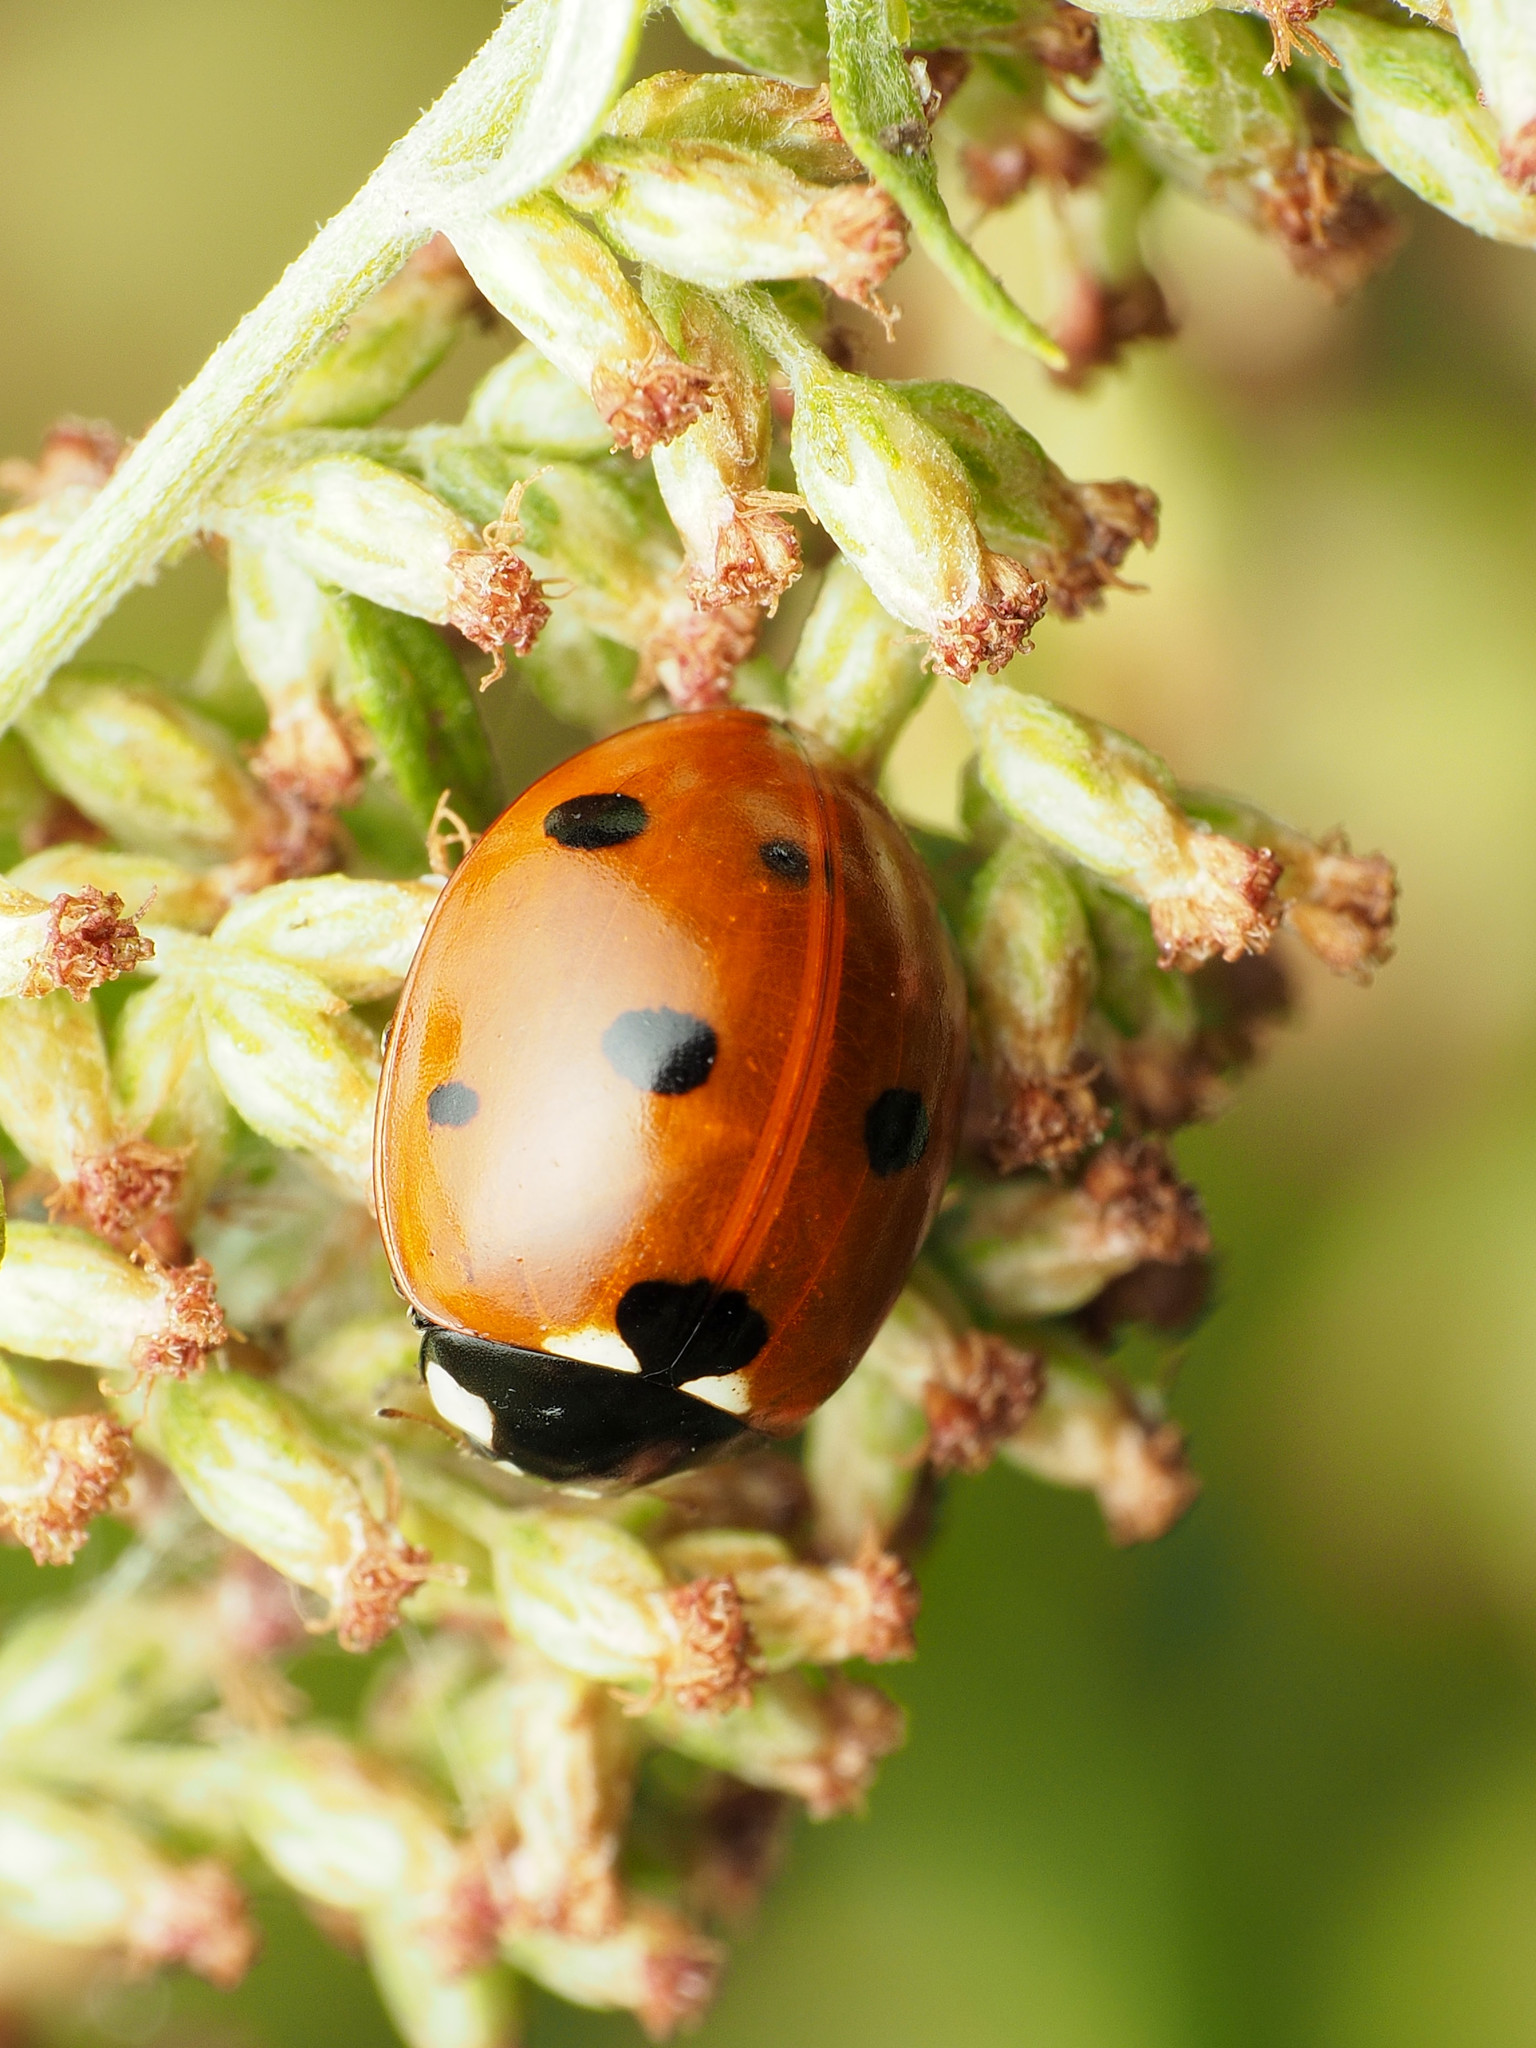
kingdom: Animalia
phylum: Arthropoda
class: Insecta
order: Coleoptera
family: Coccinellidae
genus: Coccinella
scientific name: Coccinella septempunctata
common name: Sevenspotted lady beetle
